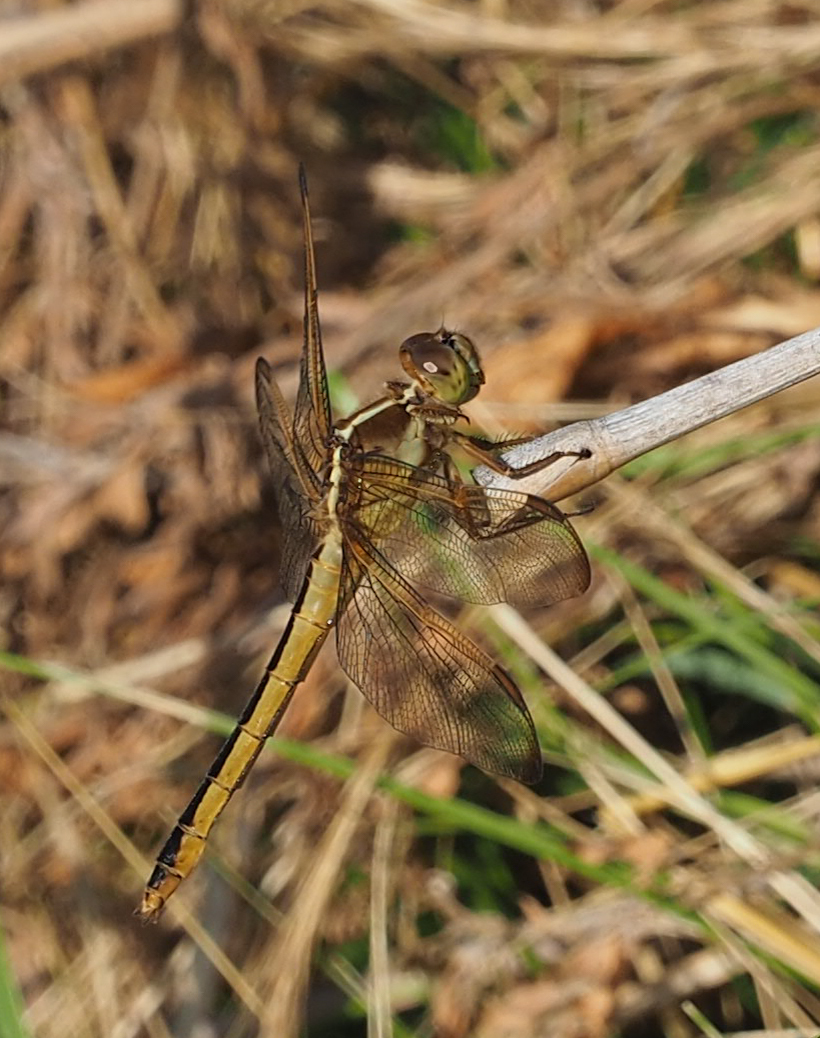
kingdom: Animalia
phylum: Arthropoda
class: Insecta
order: Odonata
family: Libellulidae
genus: Libellula
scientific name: Libellula needhami
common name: Needham's skimmer
